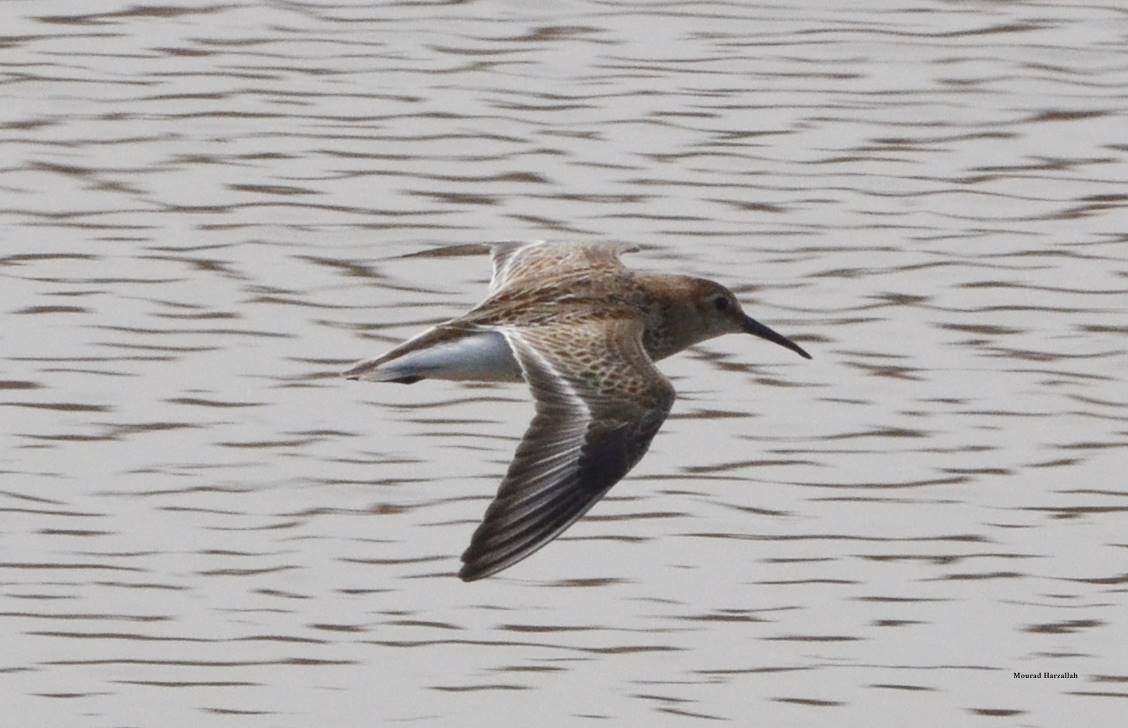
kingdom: Animalia
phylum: Chordata
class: Aves
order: Charadriiformes
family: Scolopacidae
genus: Calidris
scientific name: Calidris alpina
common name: Dunlin
